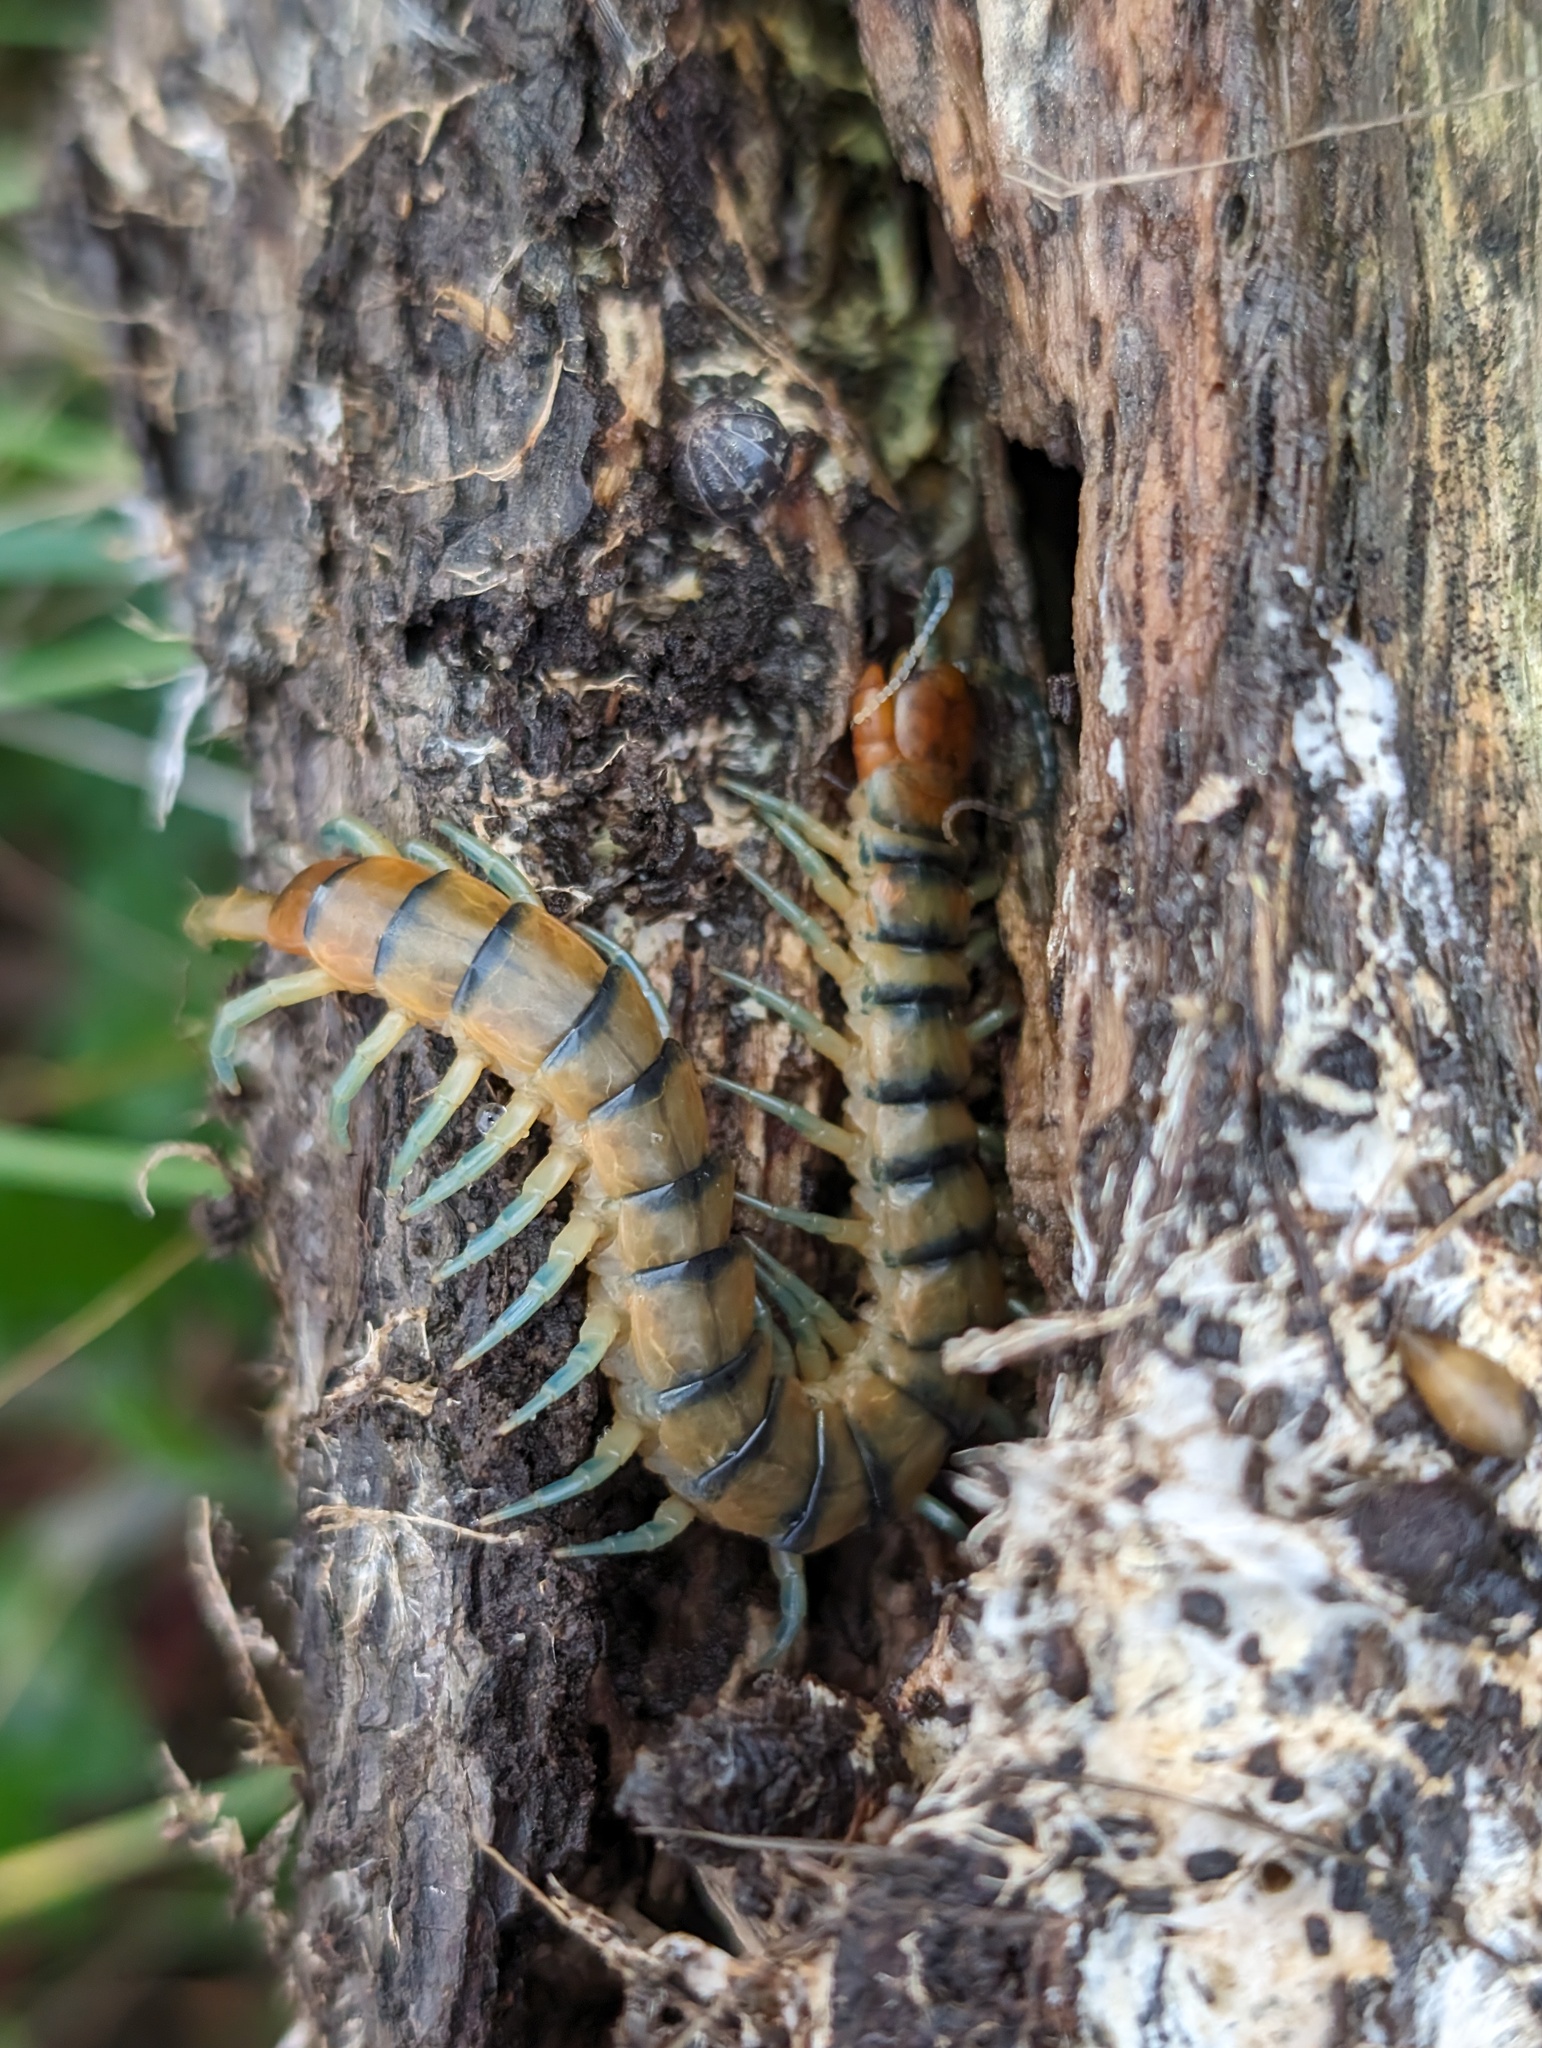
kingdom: Animalia
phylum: Arthropoda
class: Chilopoda
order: Scolopendromorpha
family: Scolopendridae
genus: Scolopendra
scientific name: Scolopendra polymorpha
